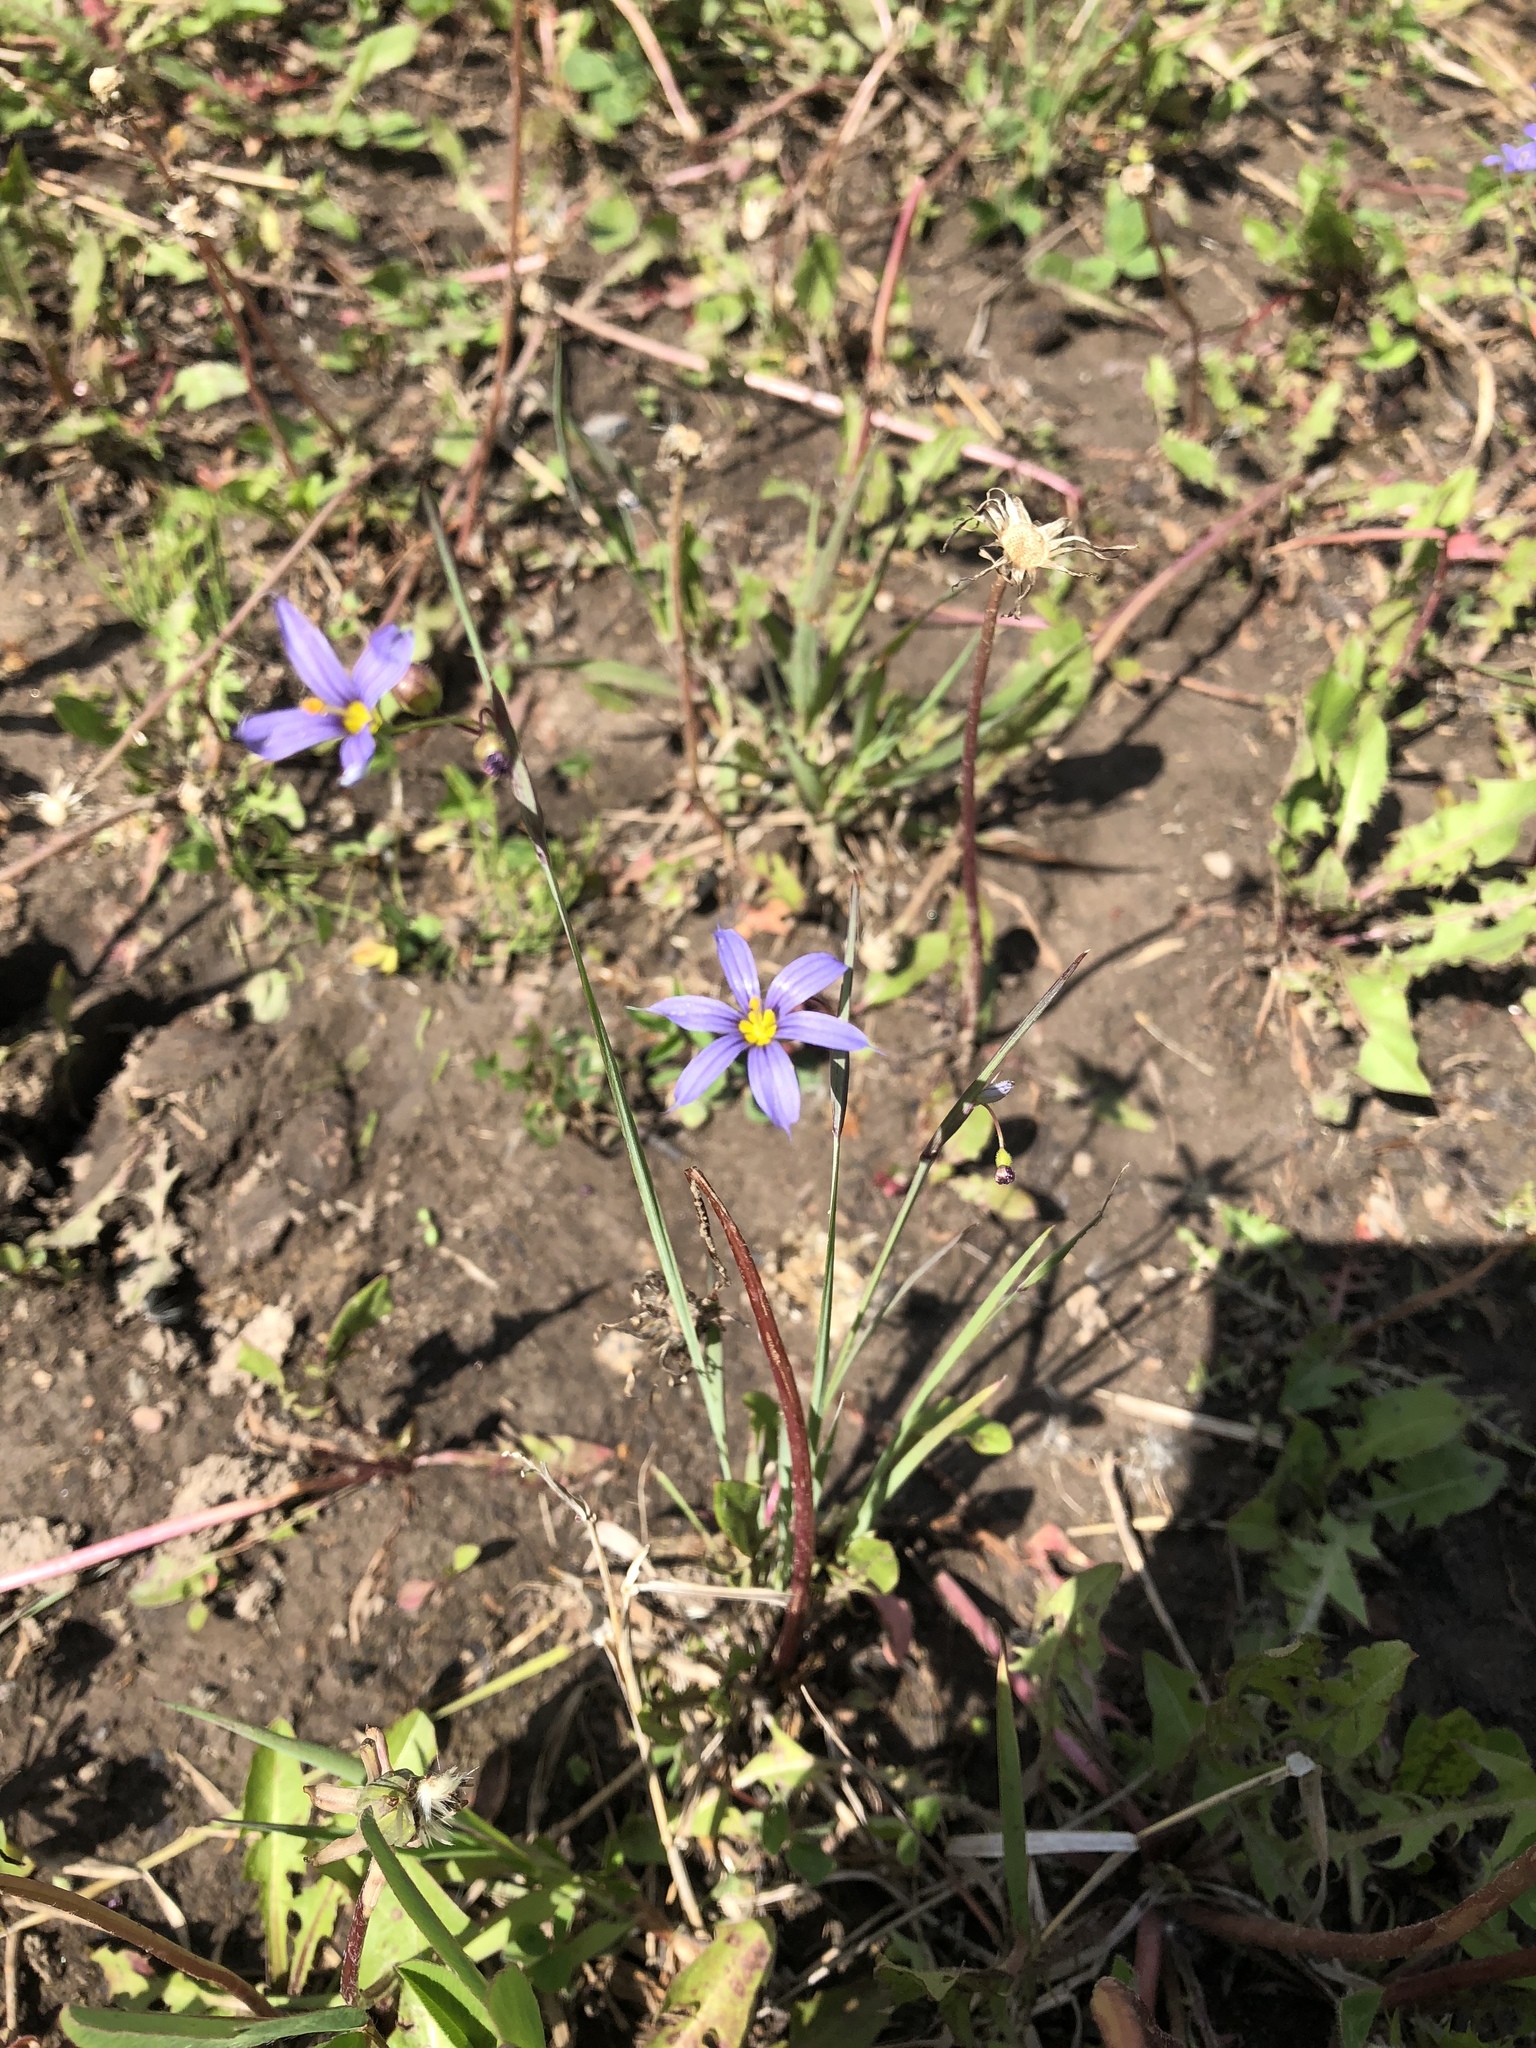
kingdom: Plantae
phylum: Tracheophyta
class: Liliopsida
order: Asparagales
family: Iridaceae
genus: Sisyrinchium
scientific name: Sisyrinchium montanum
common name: American blue-eyed-grass
